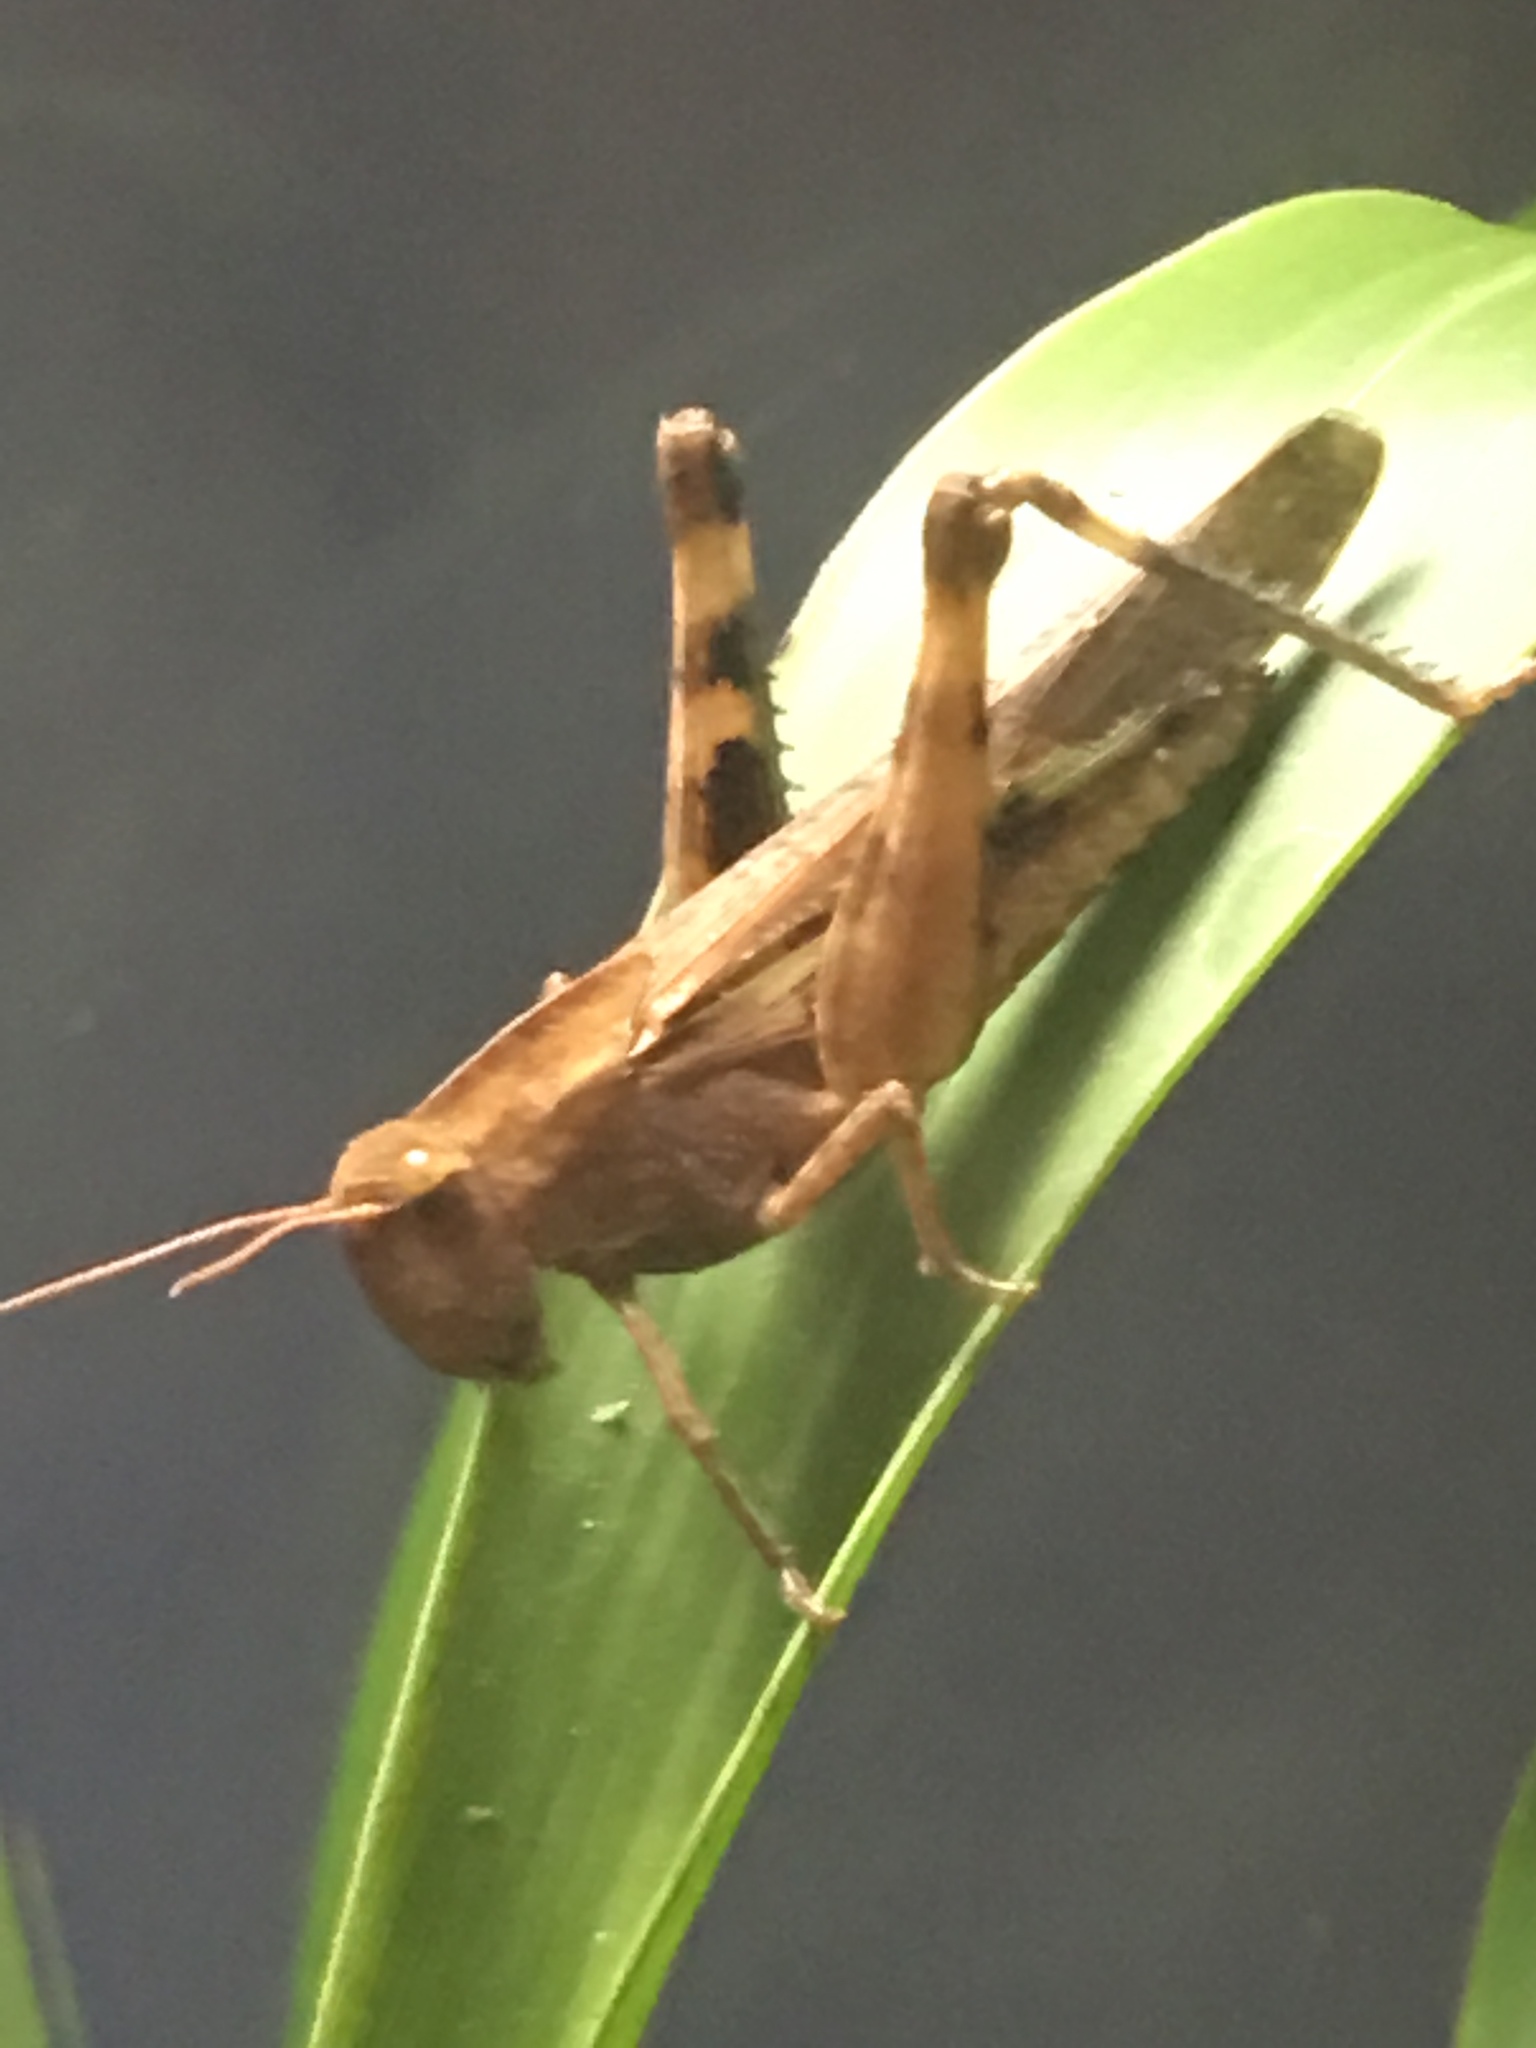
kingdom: Animalia
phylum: Arthropoda
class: Insecta
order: Orthoptera
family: Acrididae
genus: Chortophaga
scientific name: Chortophaga viridifasciata
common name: Green-striped grasshopper
